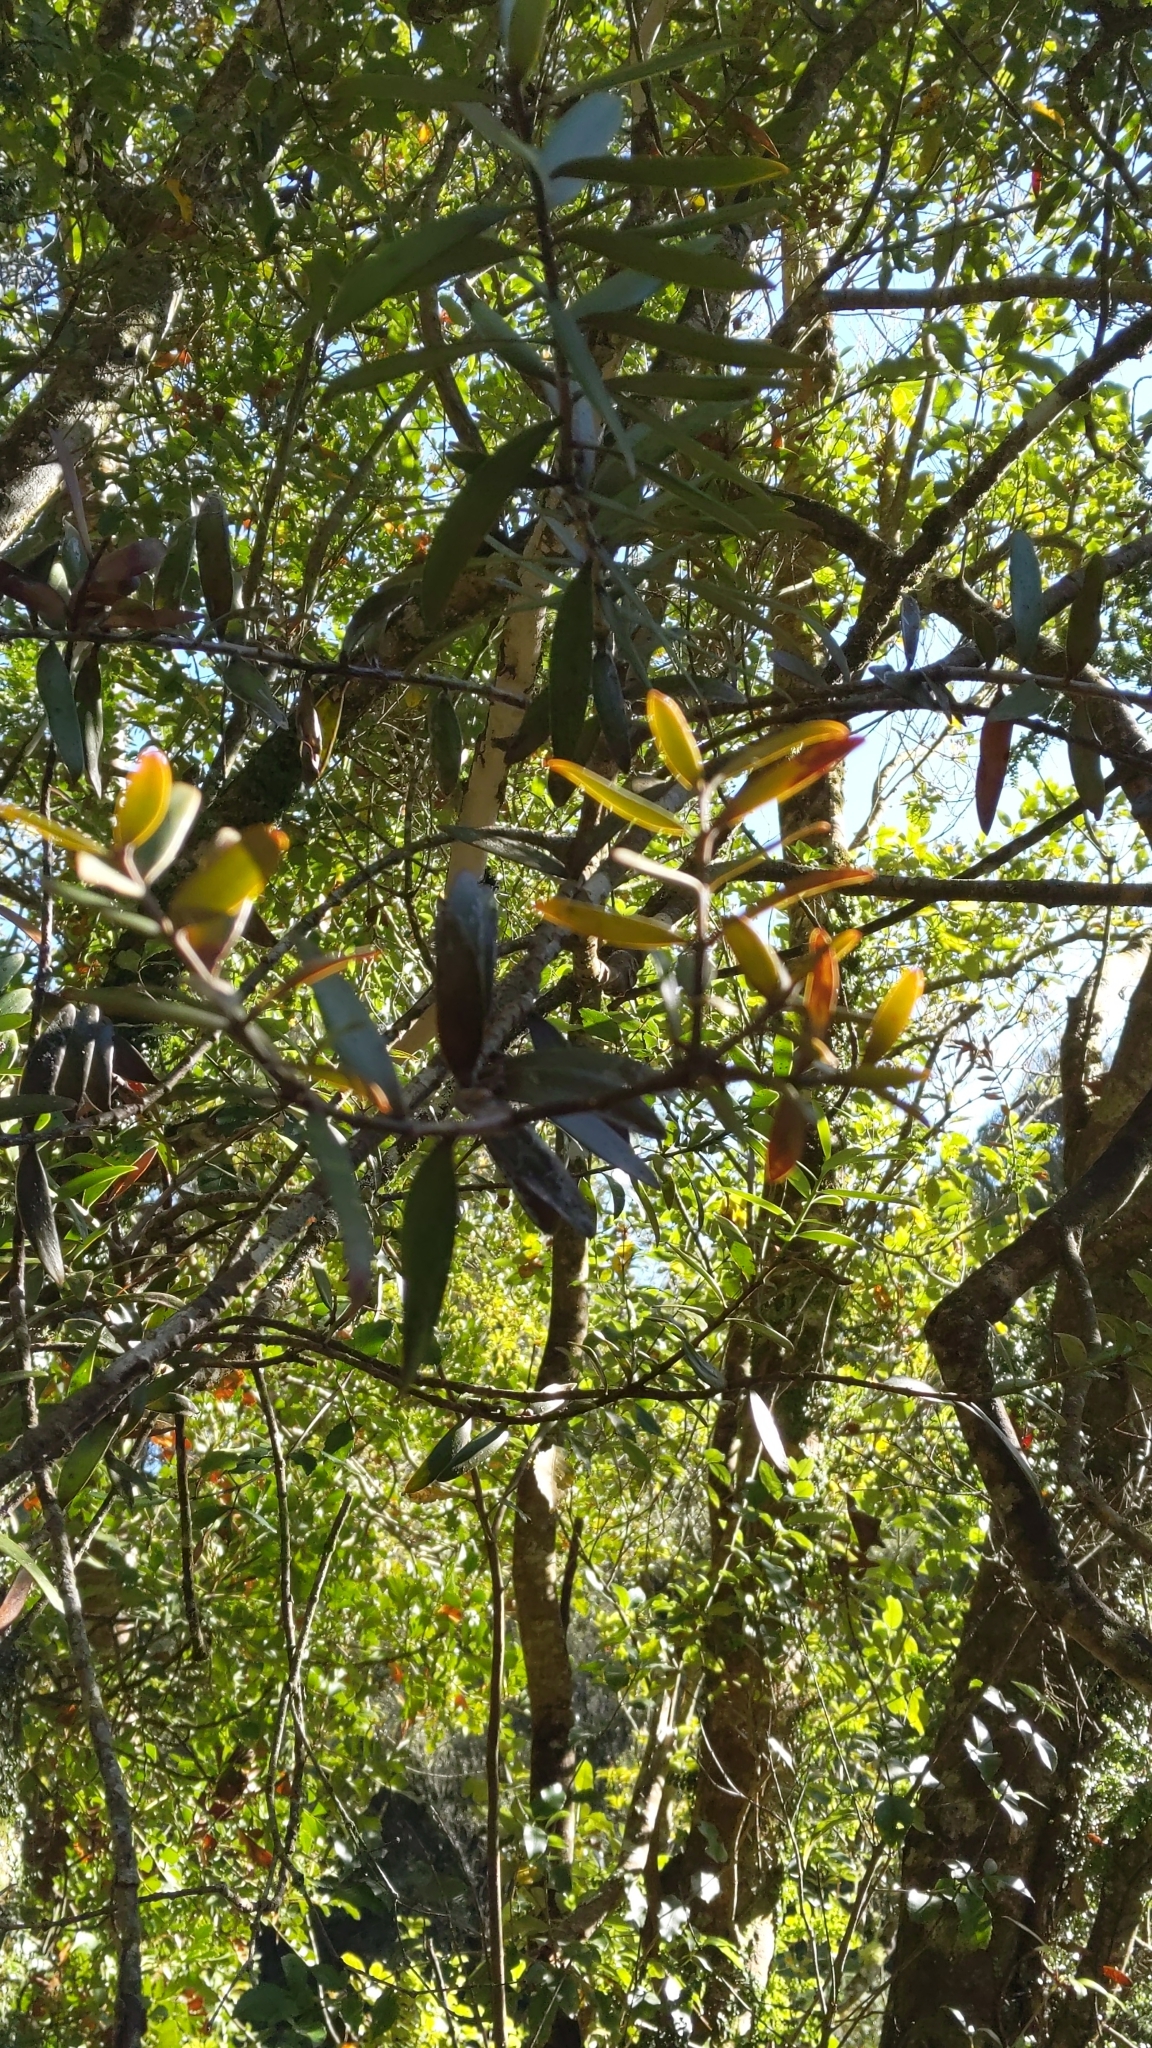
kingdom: Plantae
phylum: Tracheophyta
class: Pinopsida
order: Pinales
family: Araucariaceae
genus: Agathis
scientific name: Agathis australis
